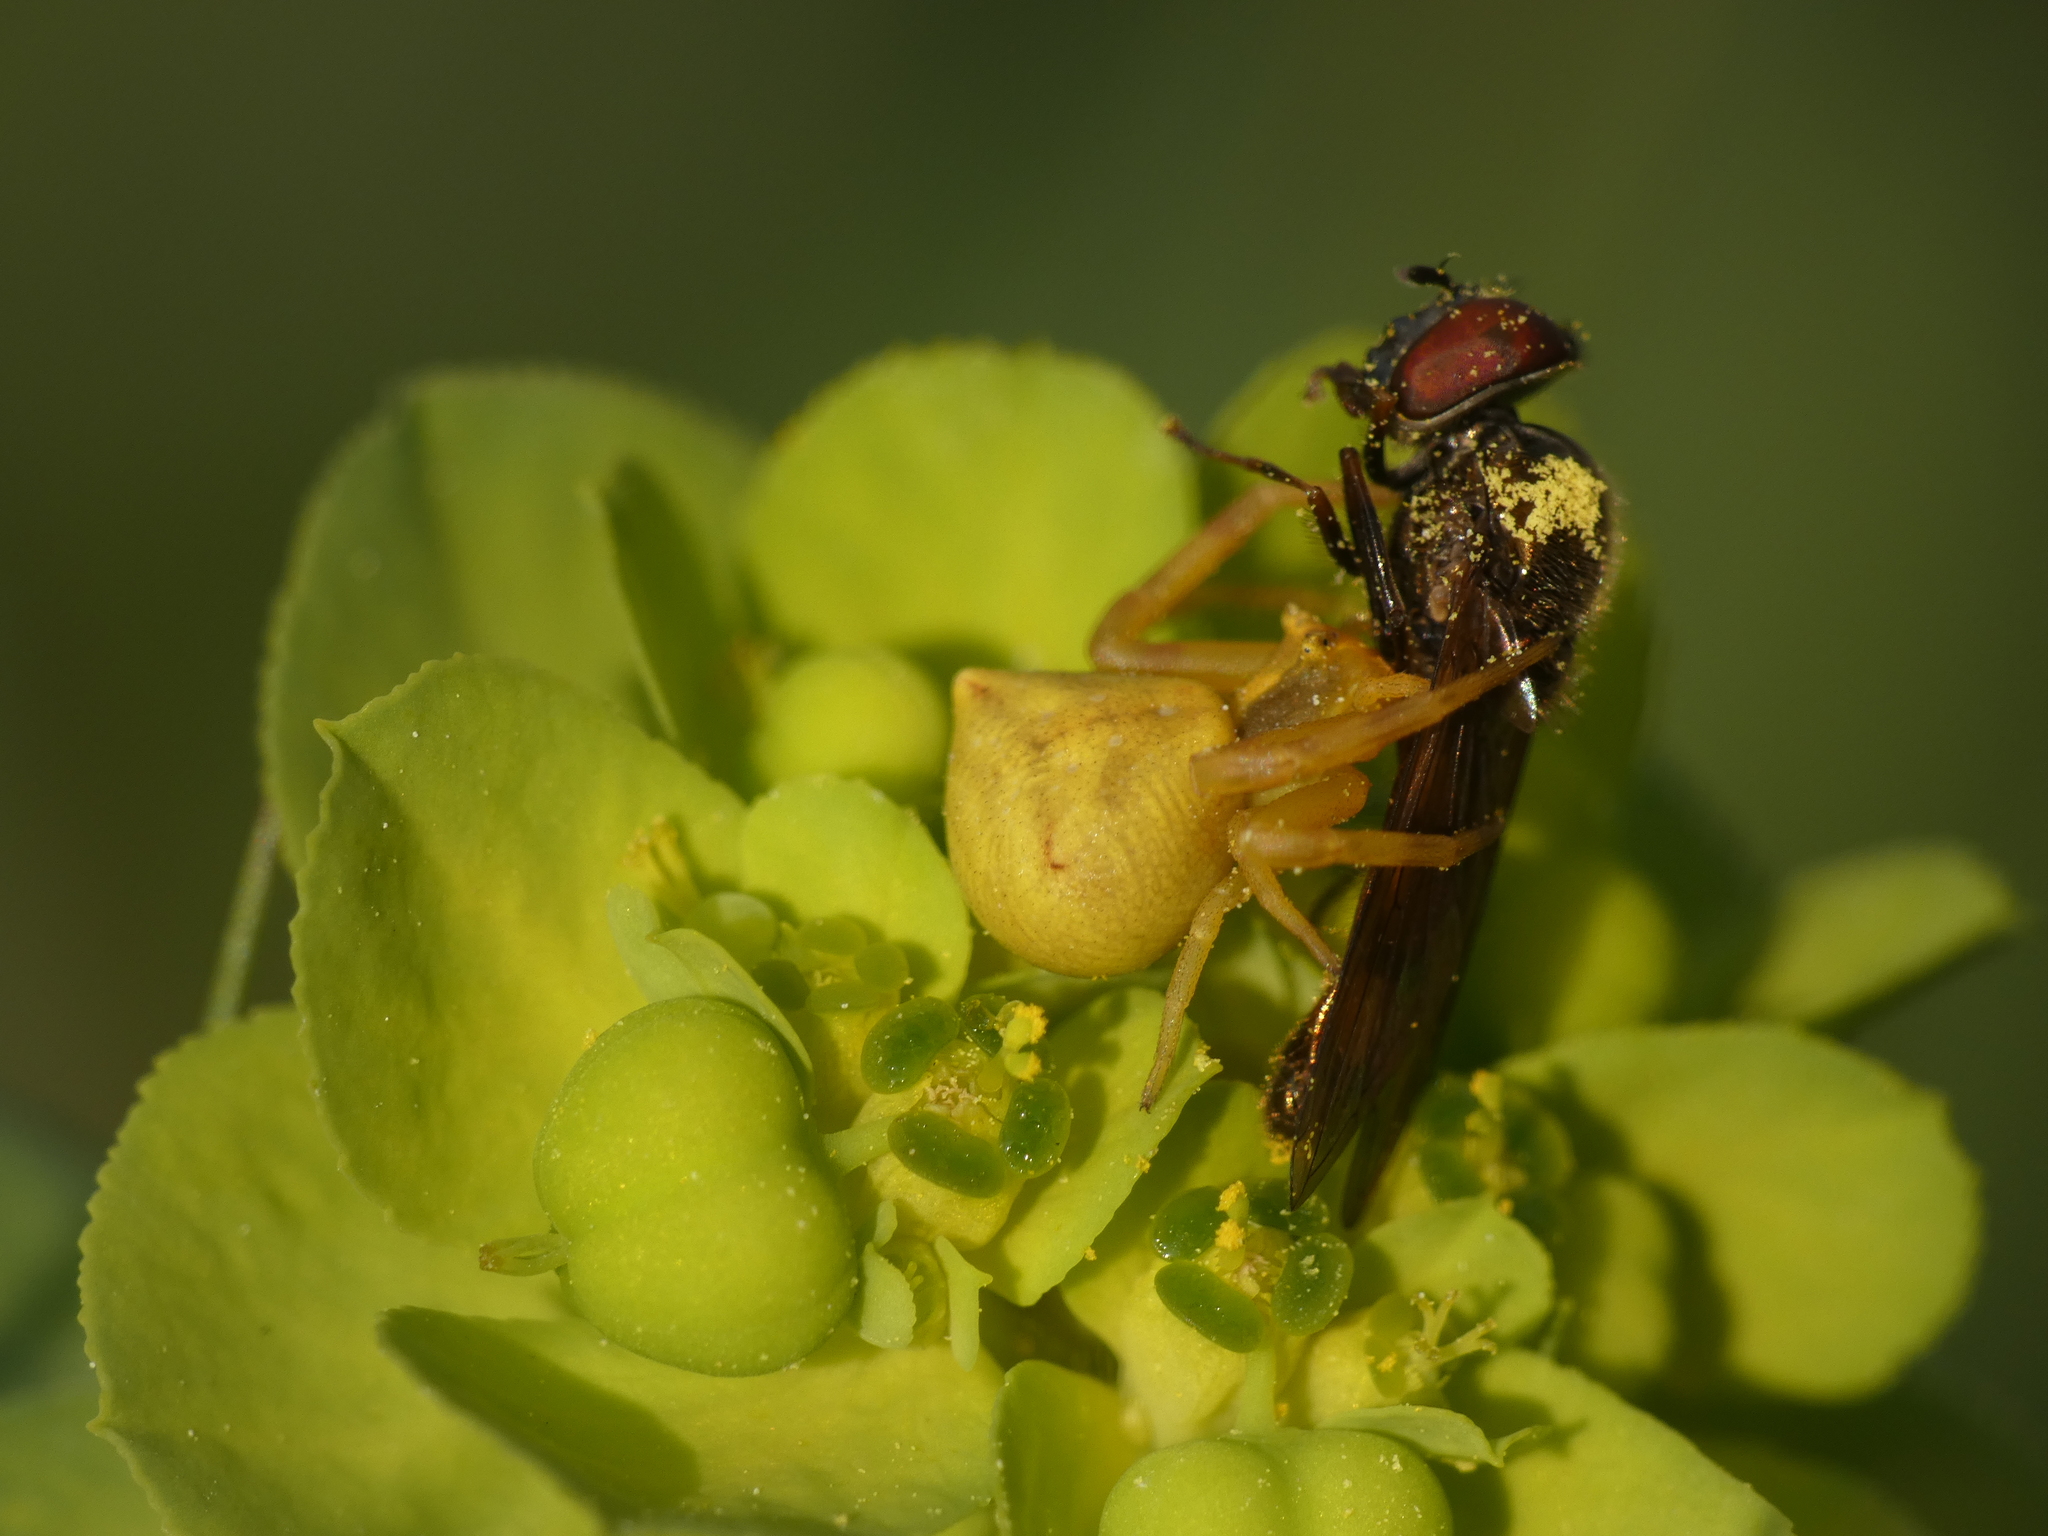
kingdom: Animalia
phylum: Arthropoda
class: Arachnida
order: Araneae
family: Thomisidae
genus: Thomisus
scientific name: Thomisus onustus
